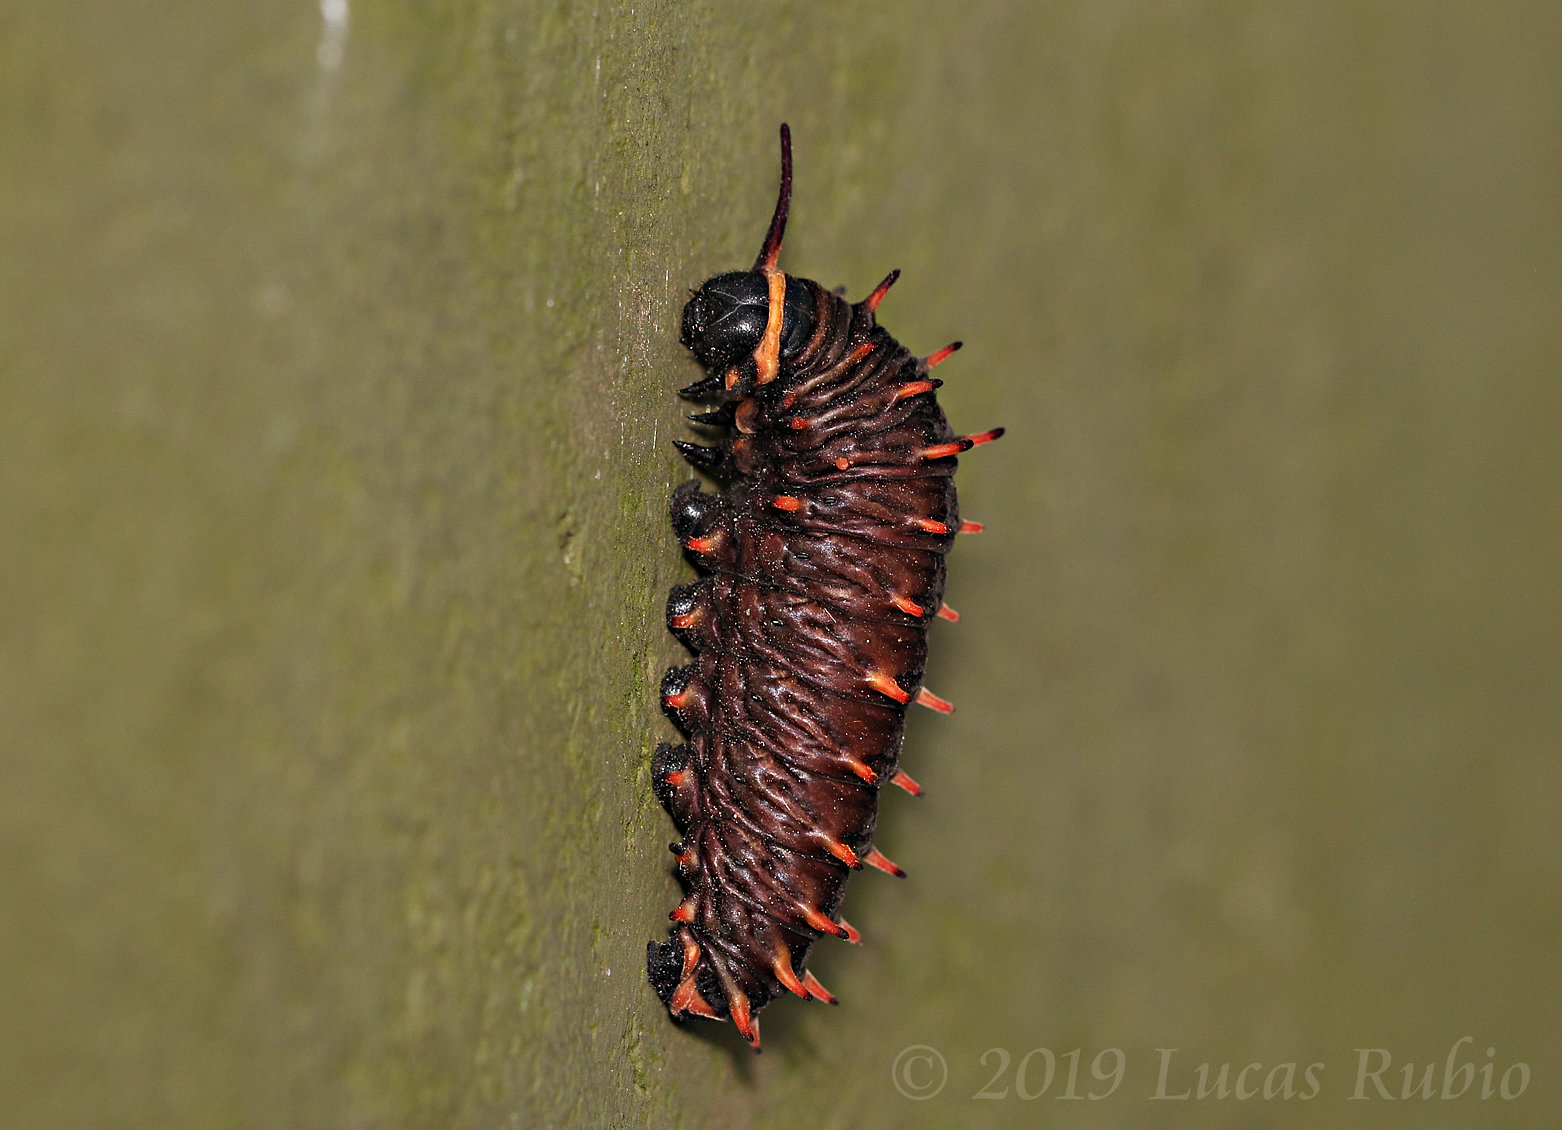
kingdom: Animalia
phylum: Arthropoda
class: Insecta
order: Lepidoptera
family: Papilionidae
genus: Battus
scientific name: Battus polydamas
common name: Polydamas swallowtail
